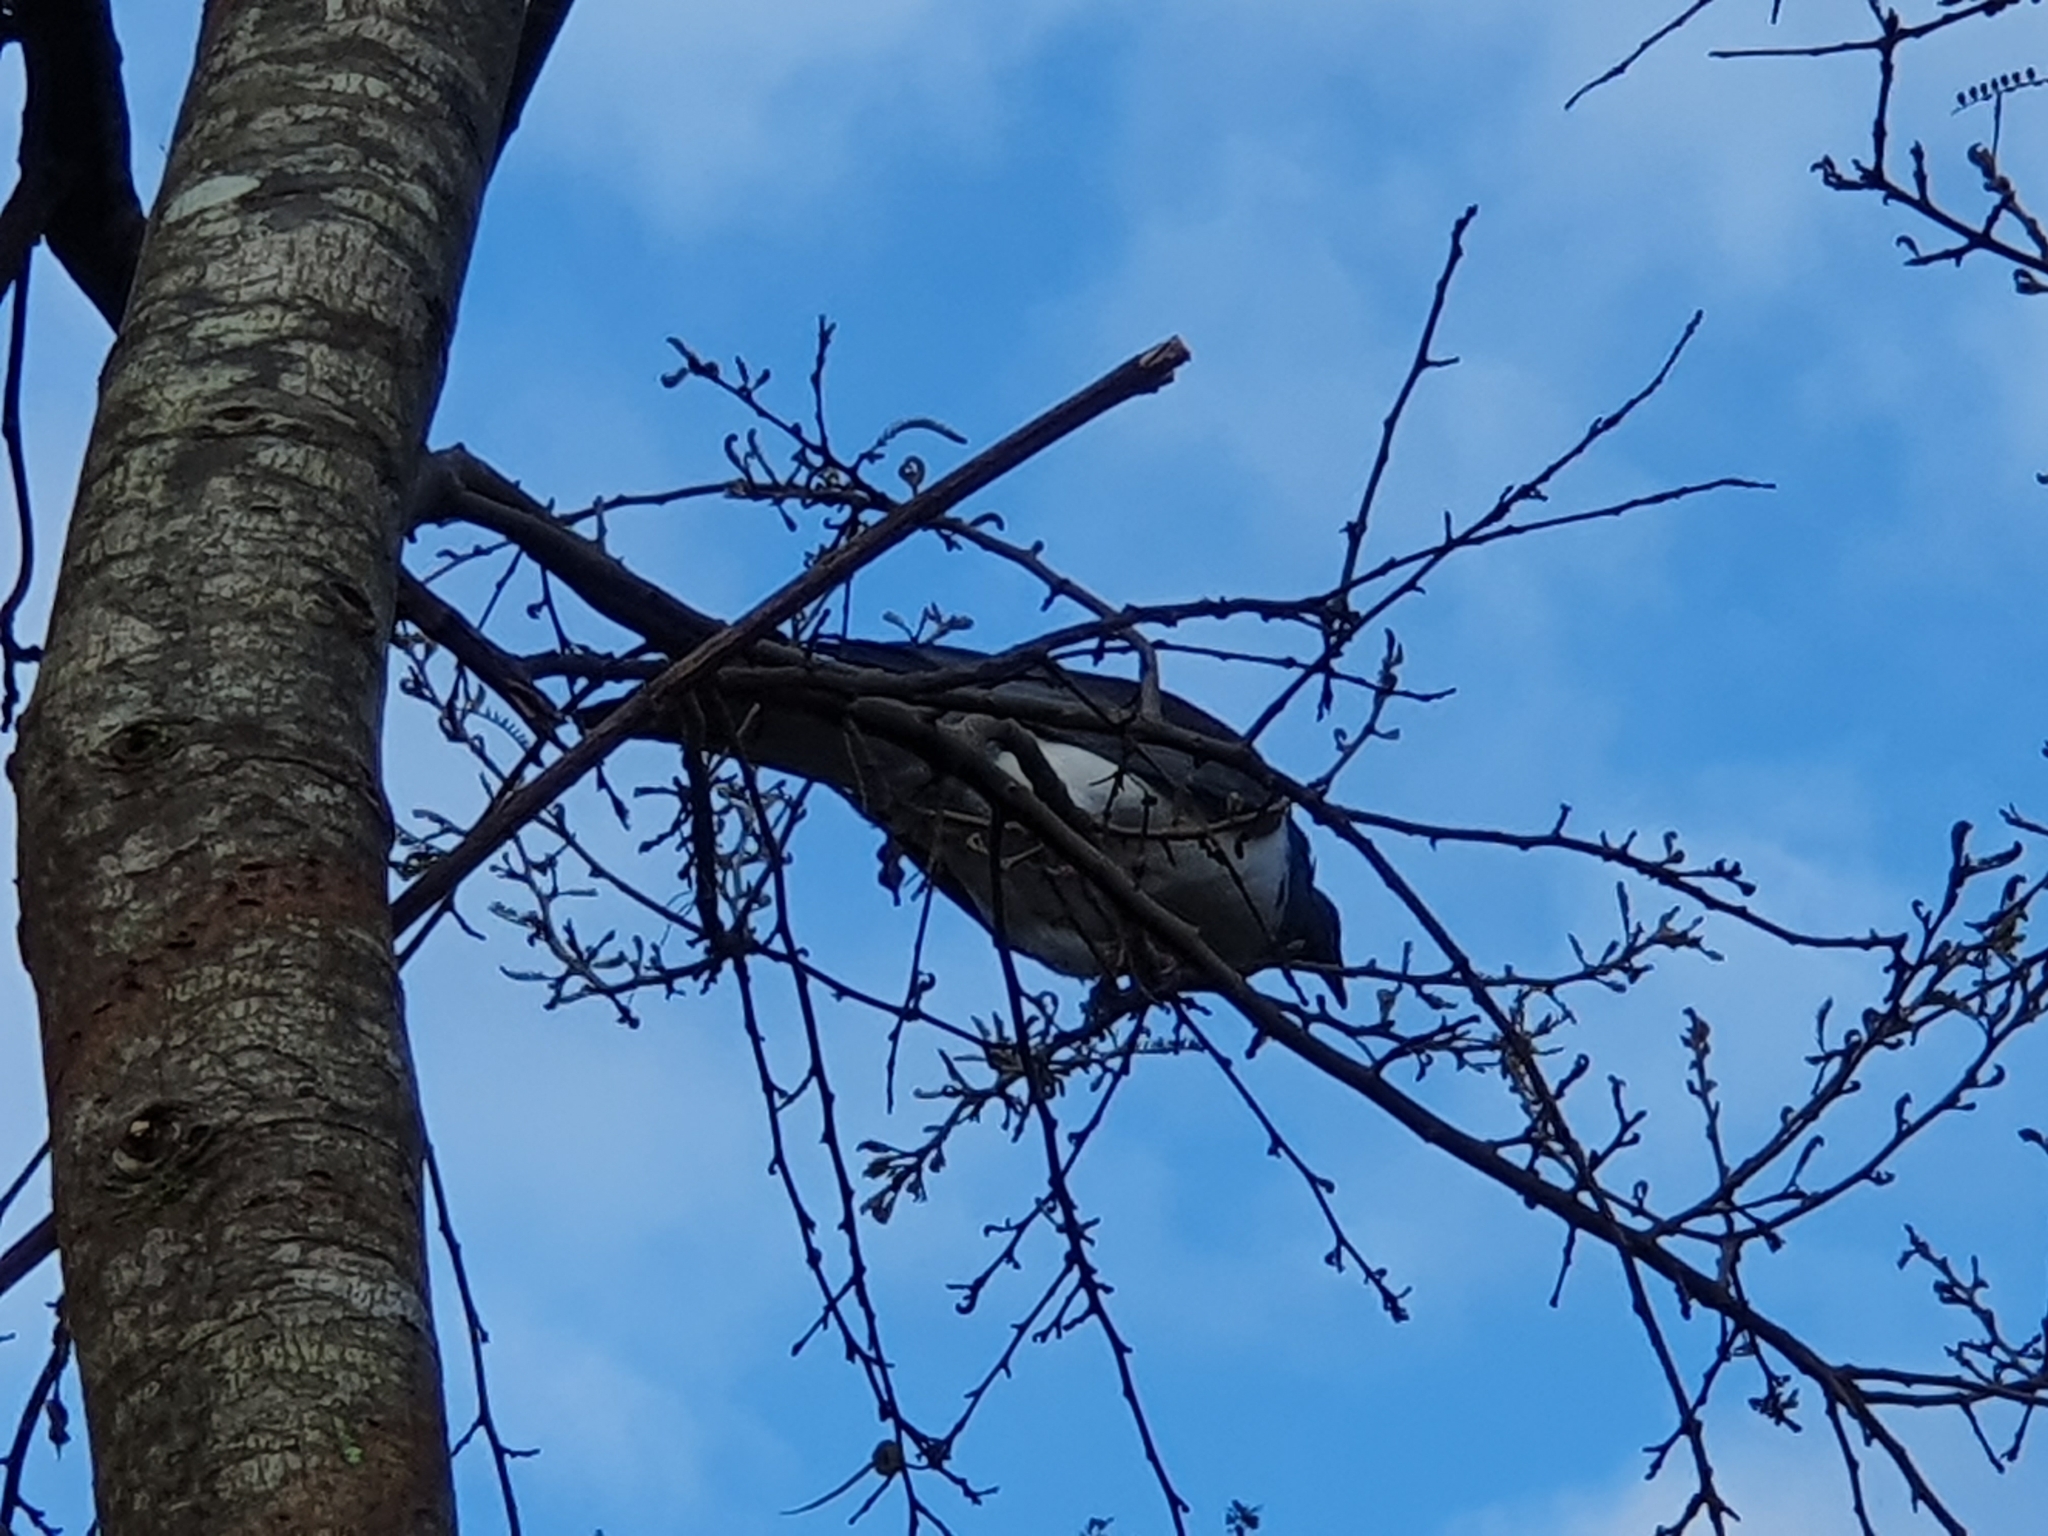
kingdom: Animalia
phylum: Chordata
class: Aves
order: Columbiformes
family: Columbidae
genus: Hemiphaga
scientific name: Hemiphaga novaeseelandiae
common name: New zealand pigeon
